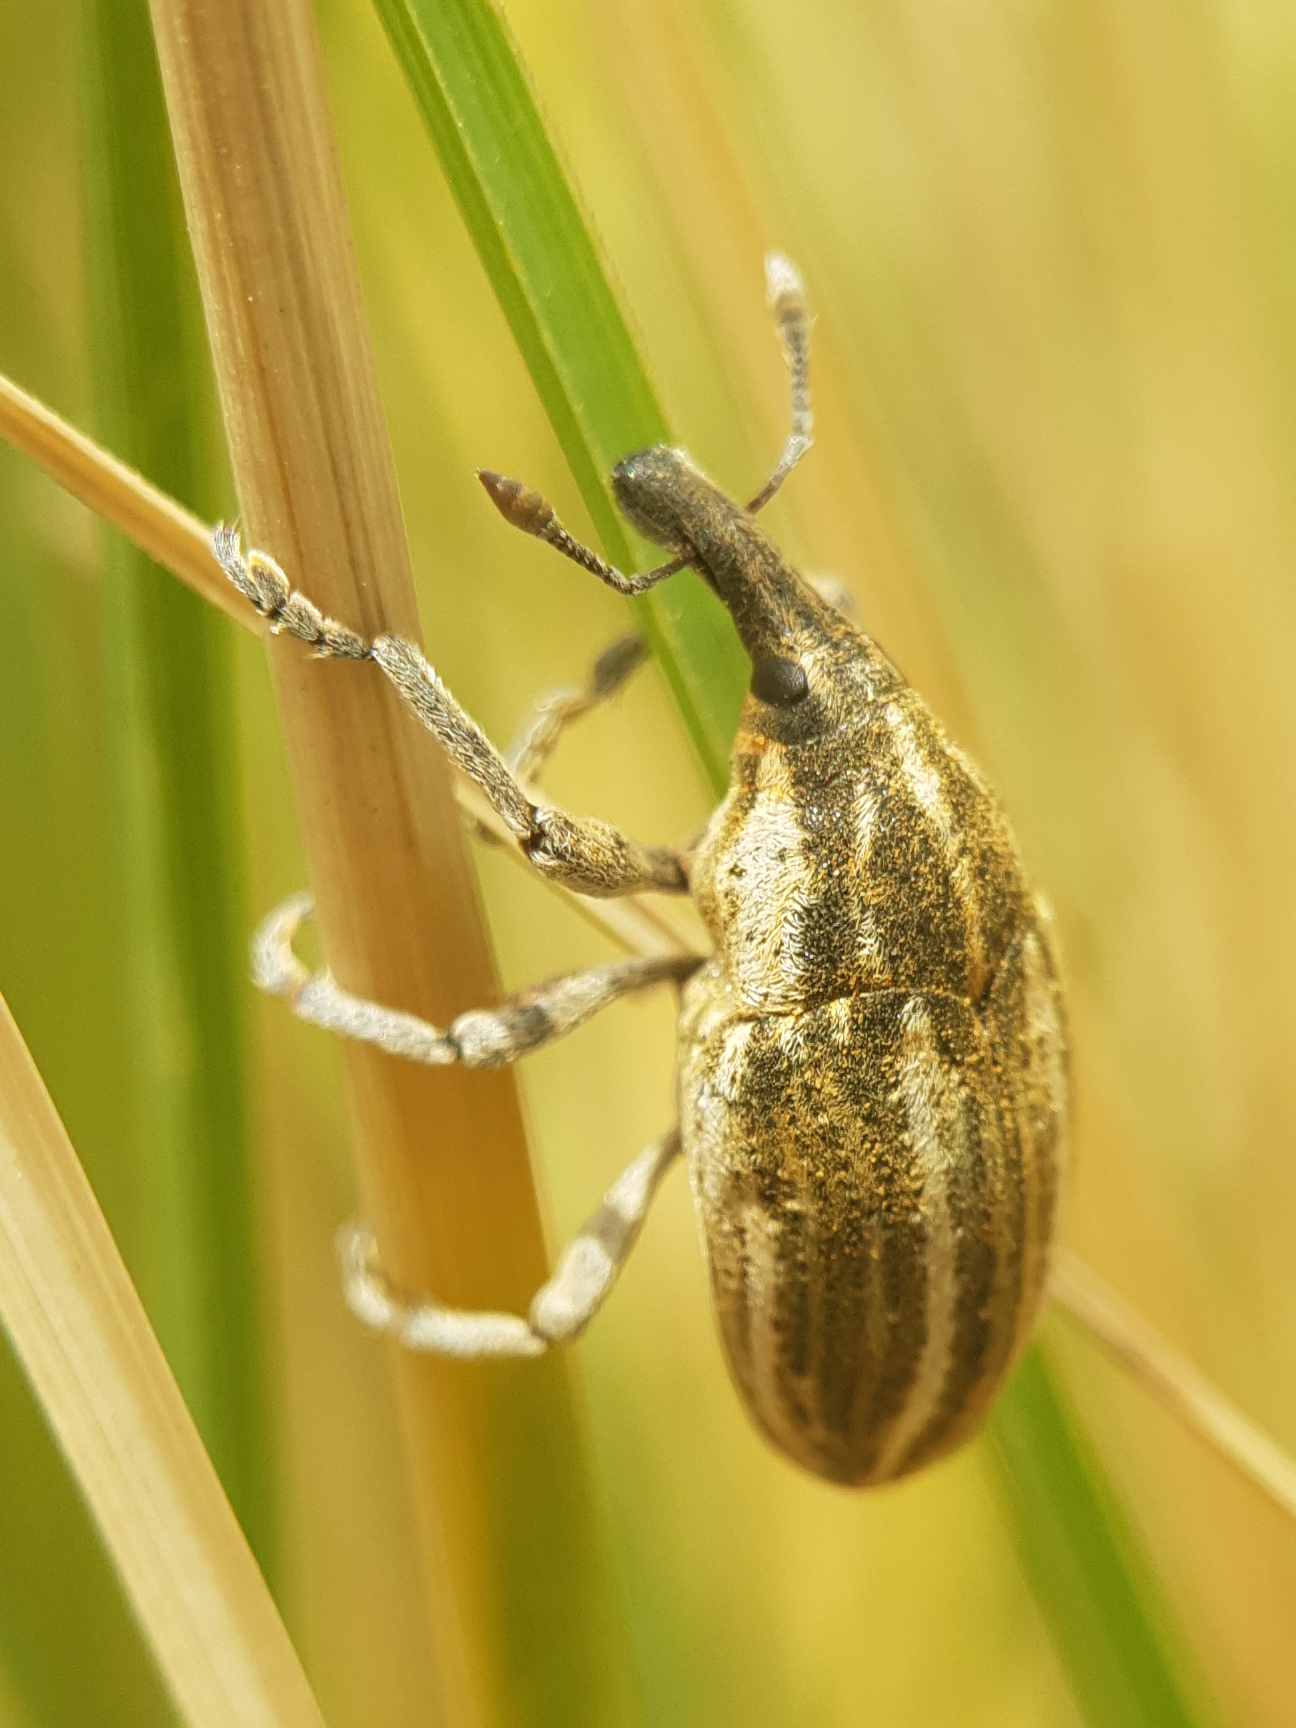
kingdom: Animalia
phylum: Arthropoda
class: Insecta
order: Coleoptera
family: Curculionidae
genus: Larinus
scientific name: Larinus ursus
